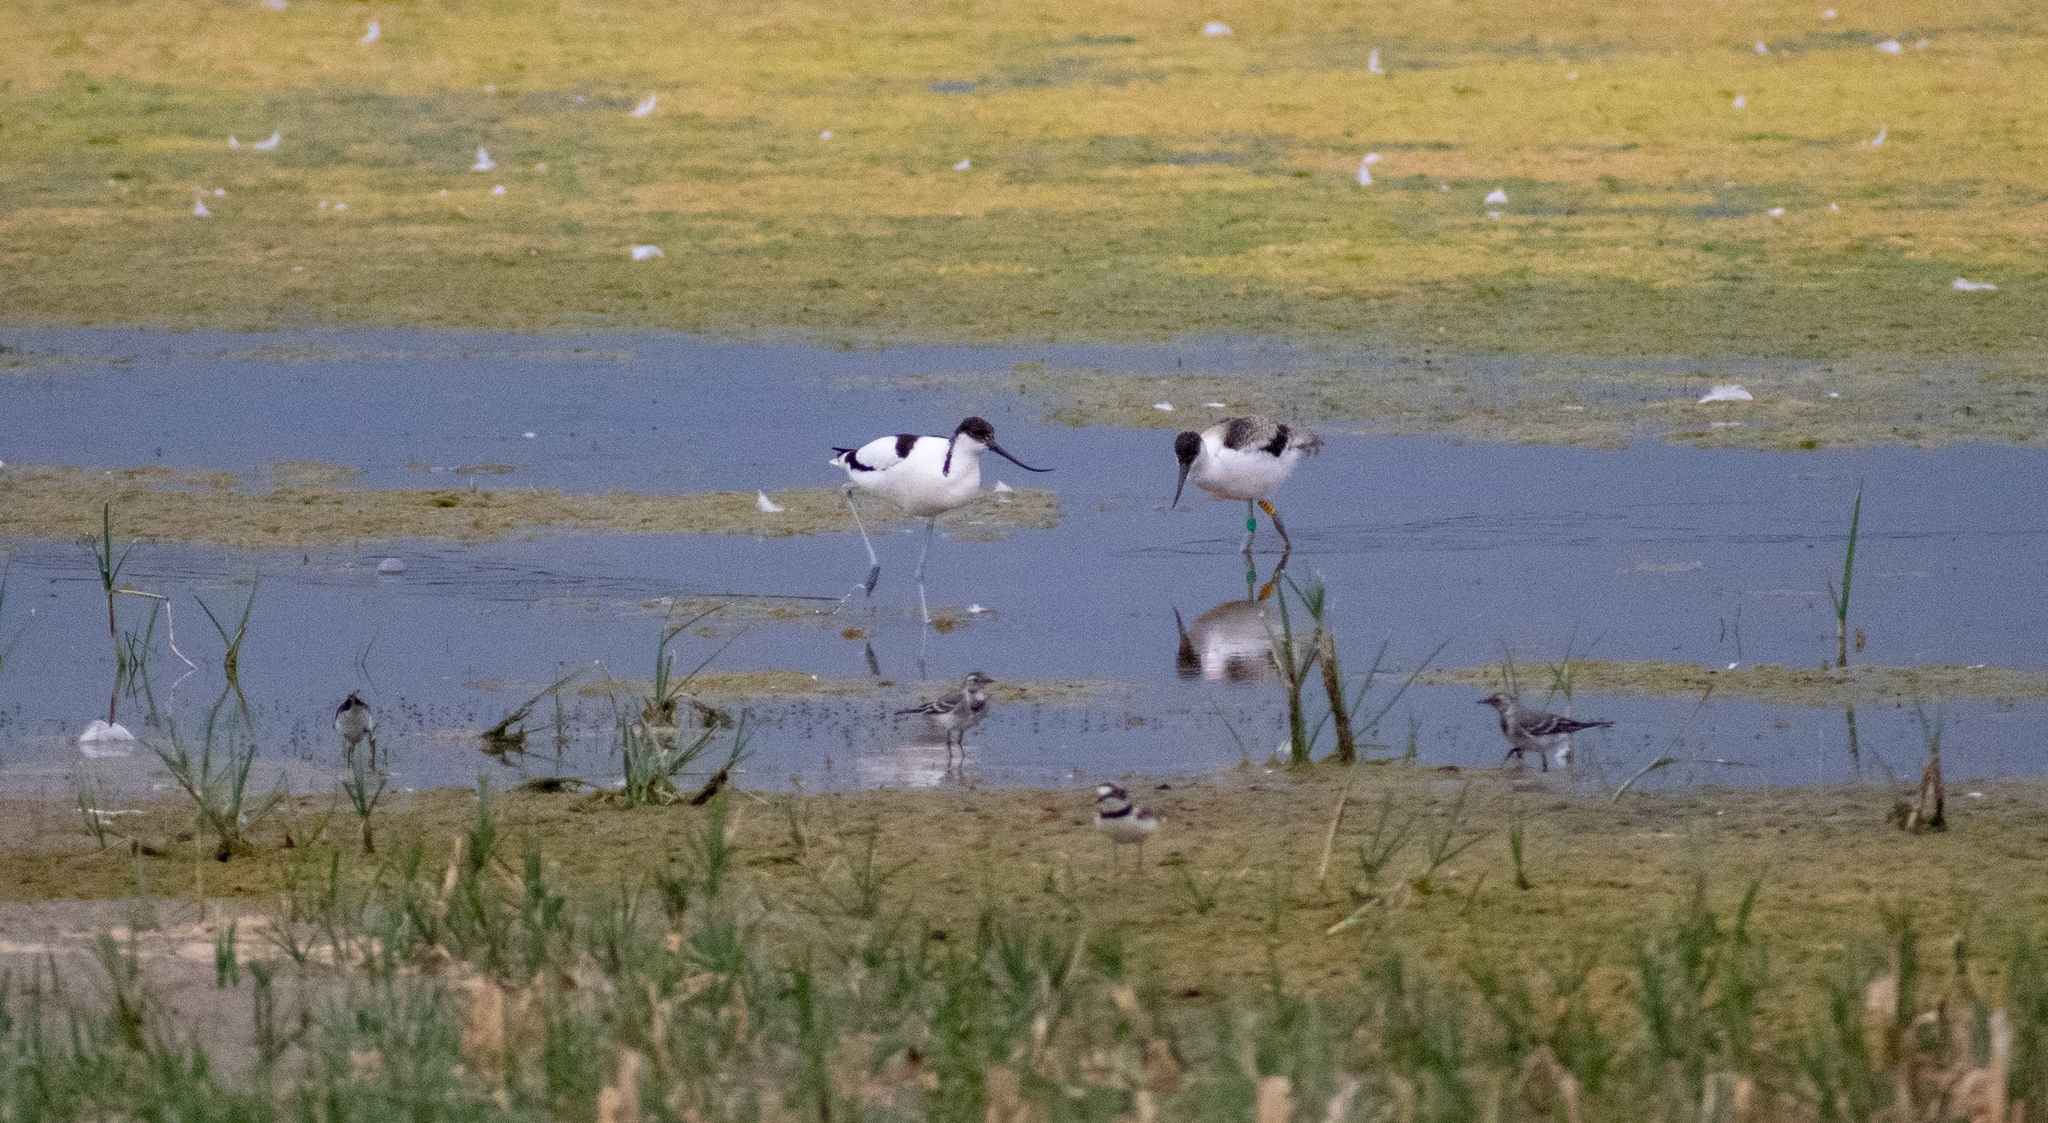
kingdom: Animalia
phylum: Chordata
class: Aves
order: Passeriformes
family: Motacillidae
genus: Motacilla
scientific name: Motacilla alba
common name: White wagtail
